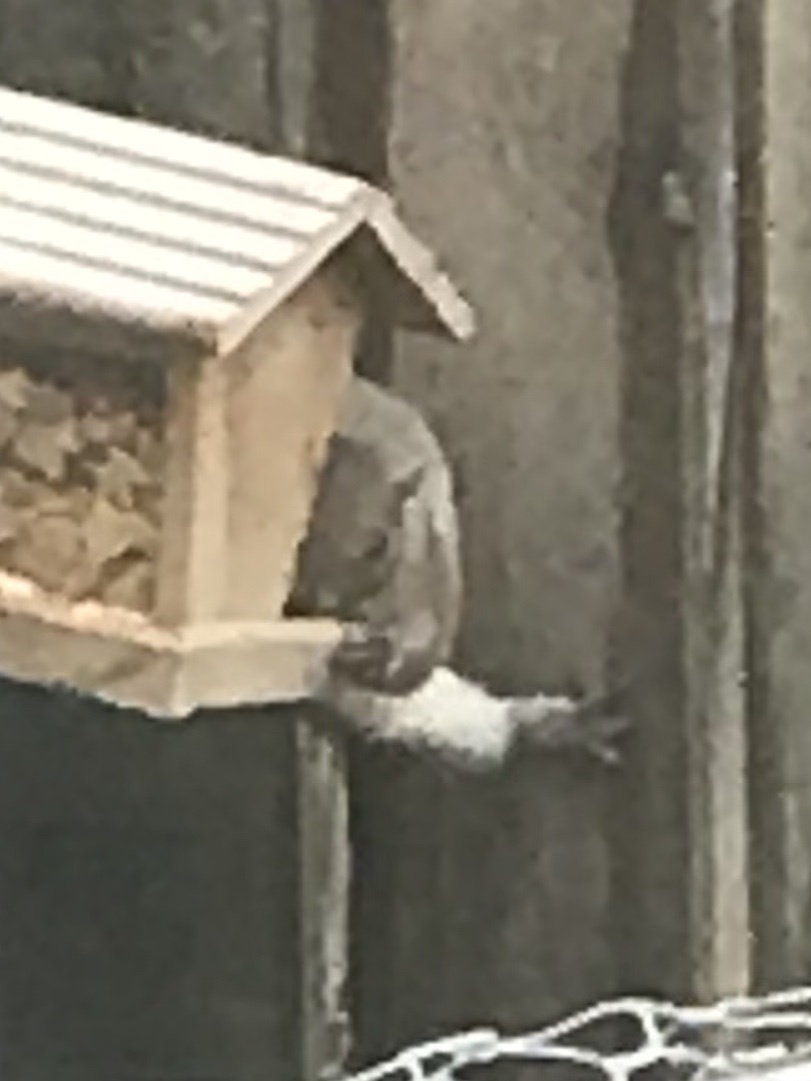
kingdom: Animalia
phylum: Chordata
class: Mammalia
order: Rodentia
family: Sciuridae
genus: Sciurus
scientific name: Sciurus carolinensis
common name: Eastern gray squirrel
